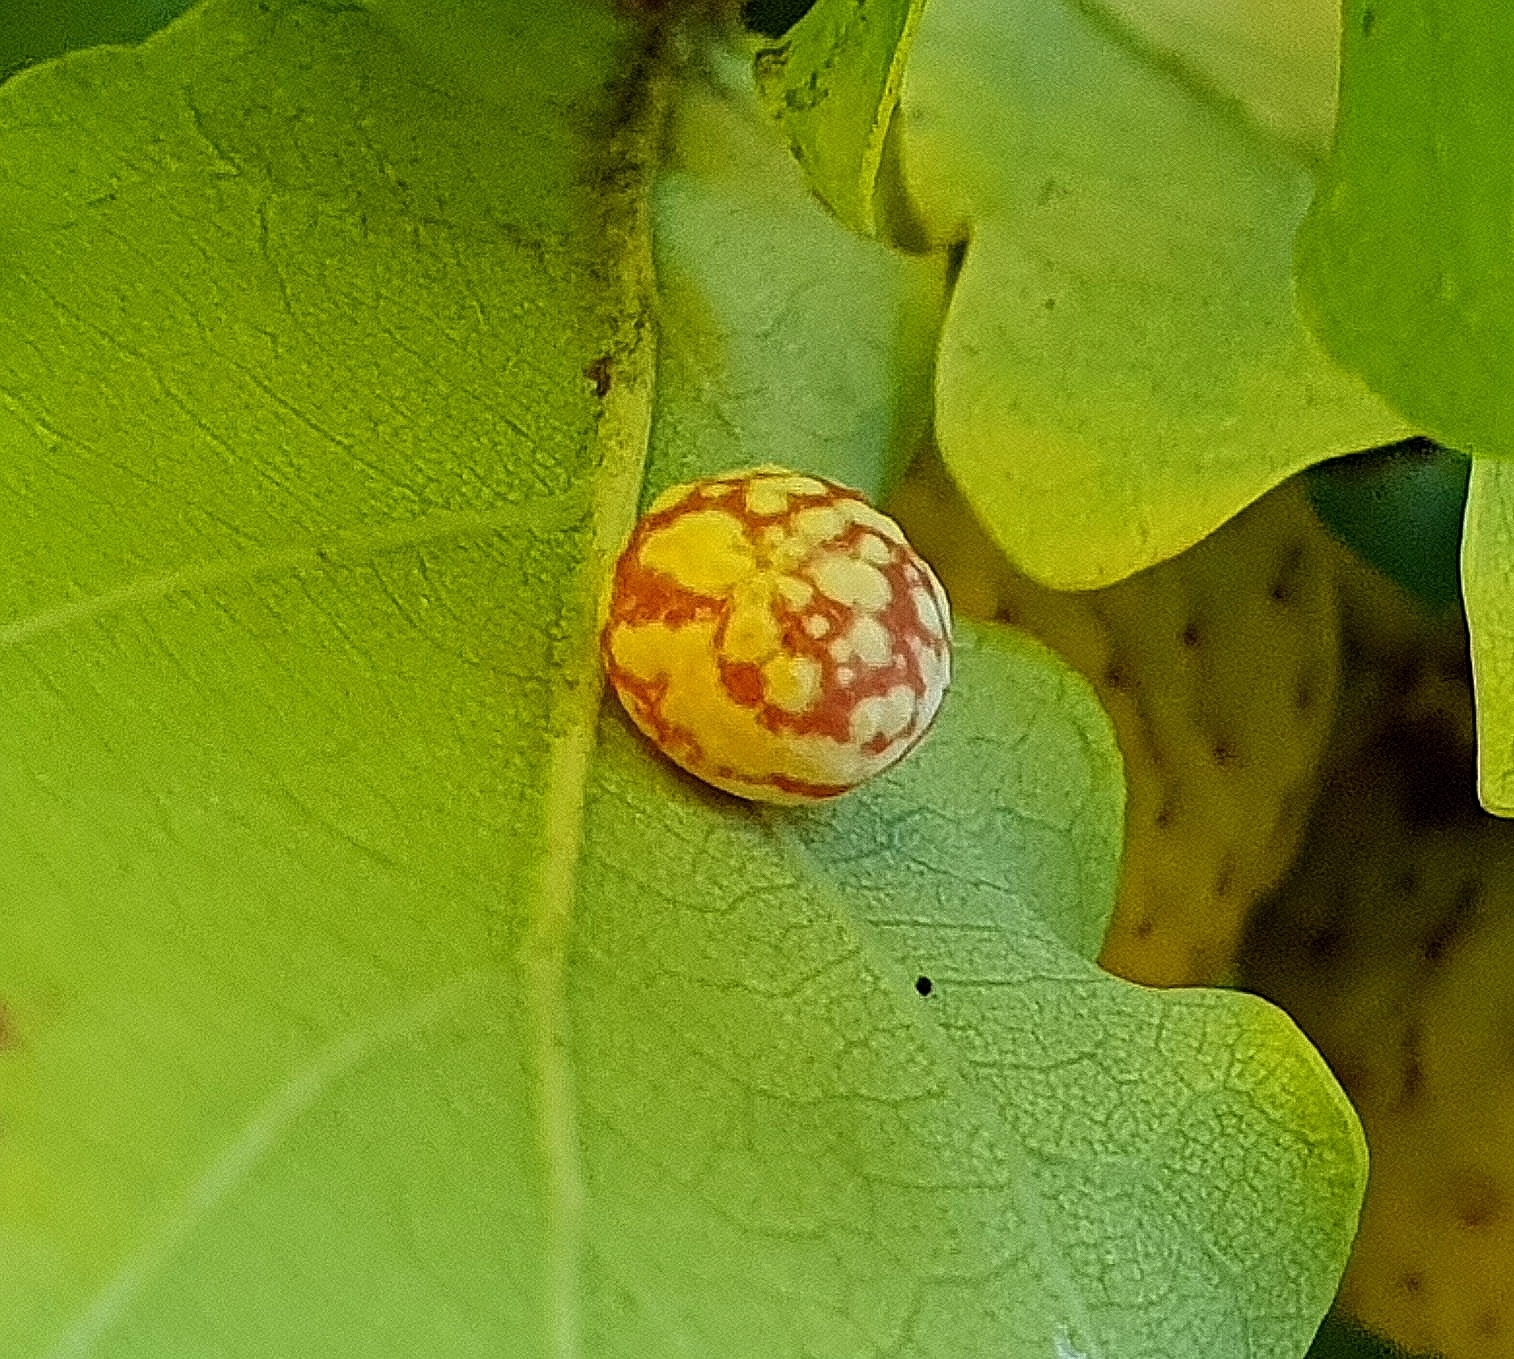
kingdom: Animalia
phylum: Arthropoda
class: Insecta
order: Hymenoptera
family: Cynipidae
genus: Cynips
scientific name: Cynips longiventris
